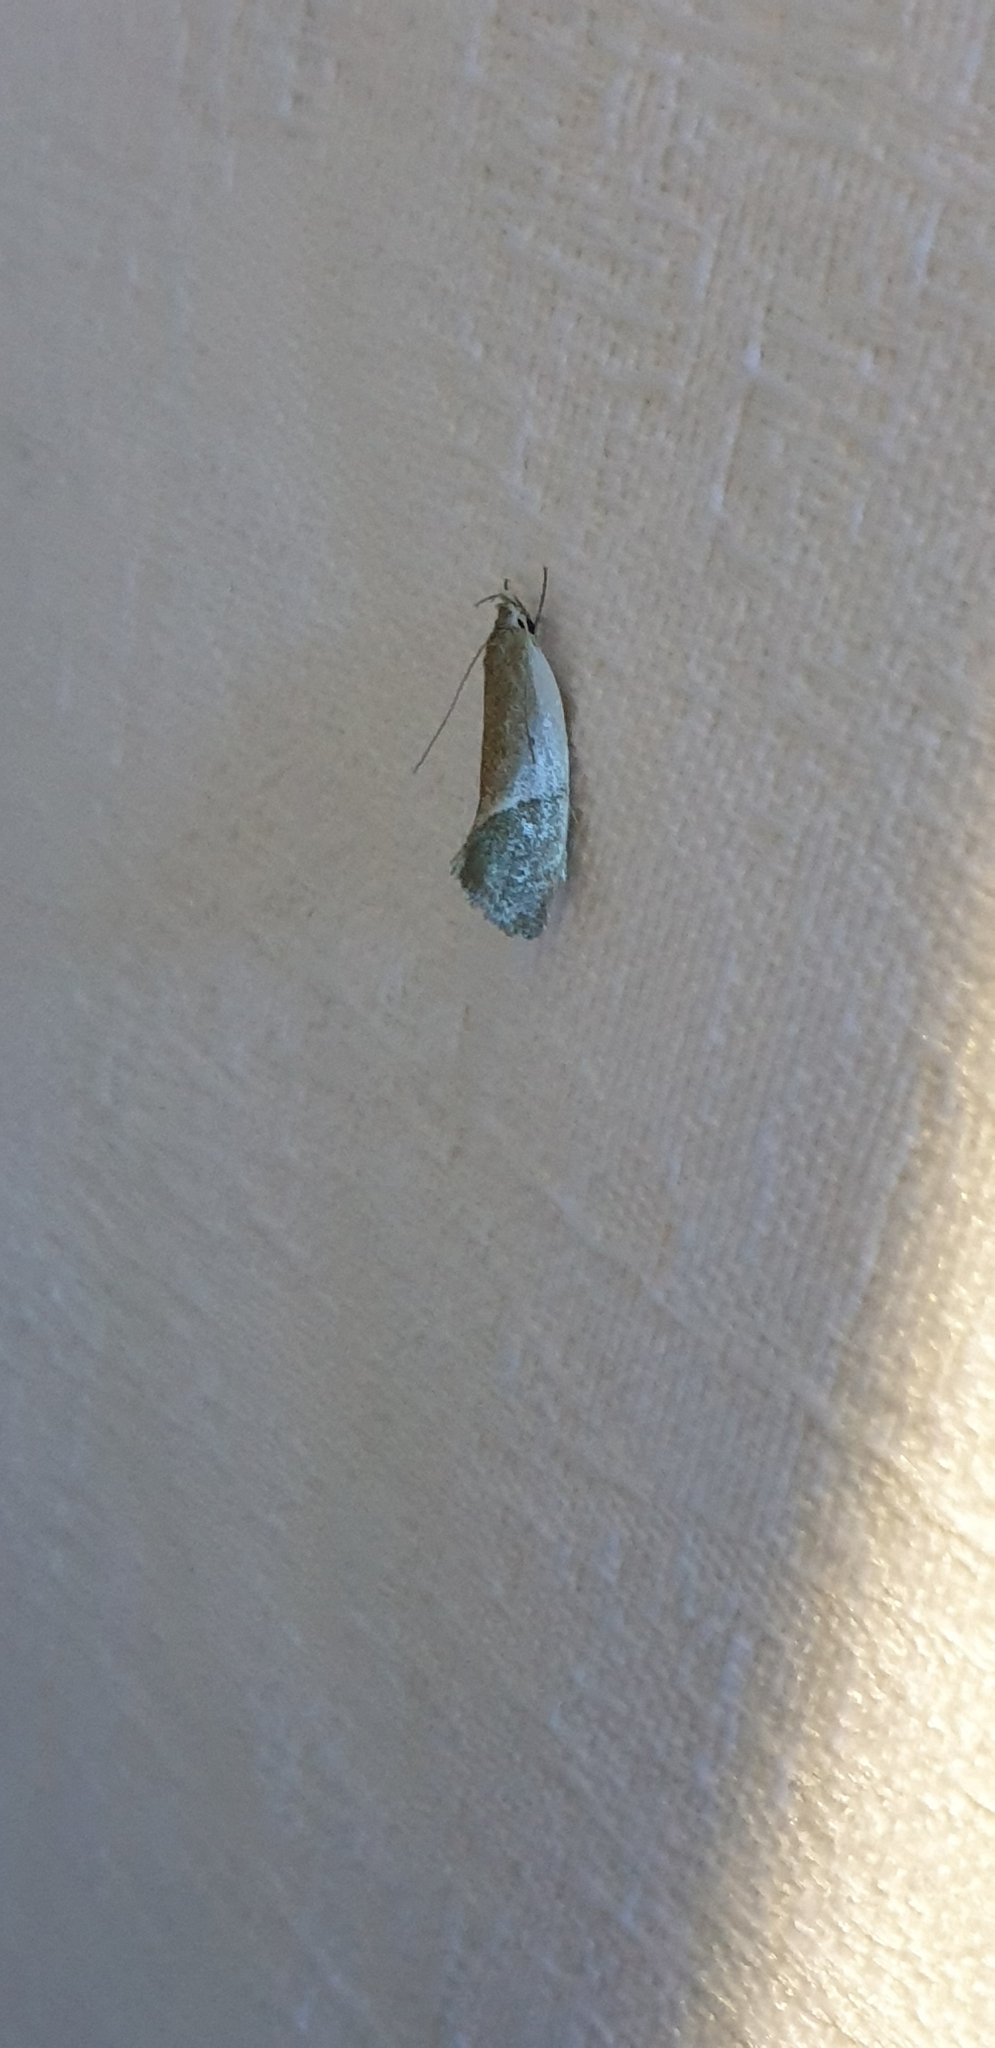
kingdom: Animalia
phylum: Arthropoda
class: Insecta
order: Lepidoptera
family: Oecophoridae
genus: Chezala
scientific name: Chezala osteochroa
